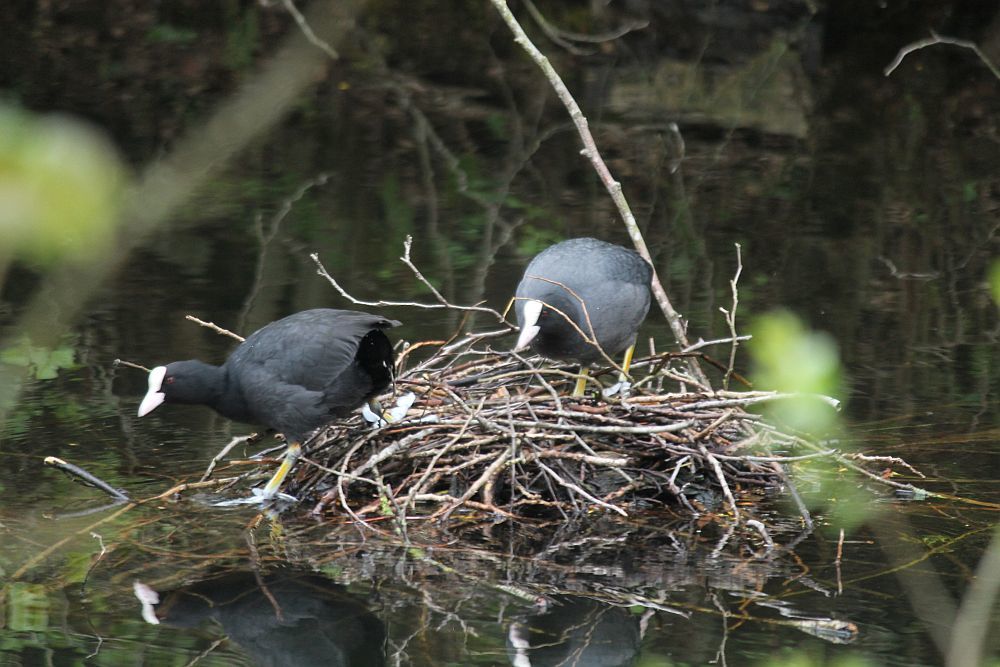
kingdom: Animalia
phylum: Chordata
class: Aves
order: Gruiformes
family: Rallidae
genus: Fulica
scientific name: Fulica atra
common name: Eurasian coot
